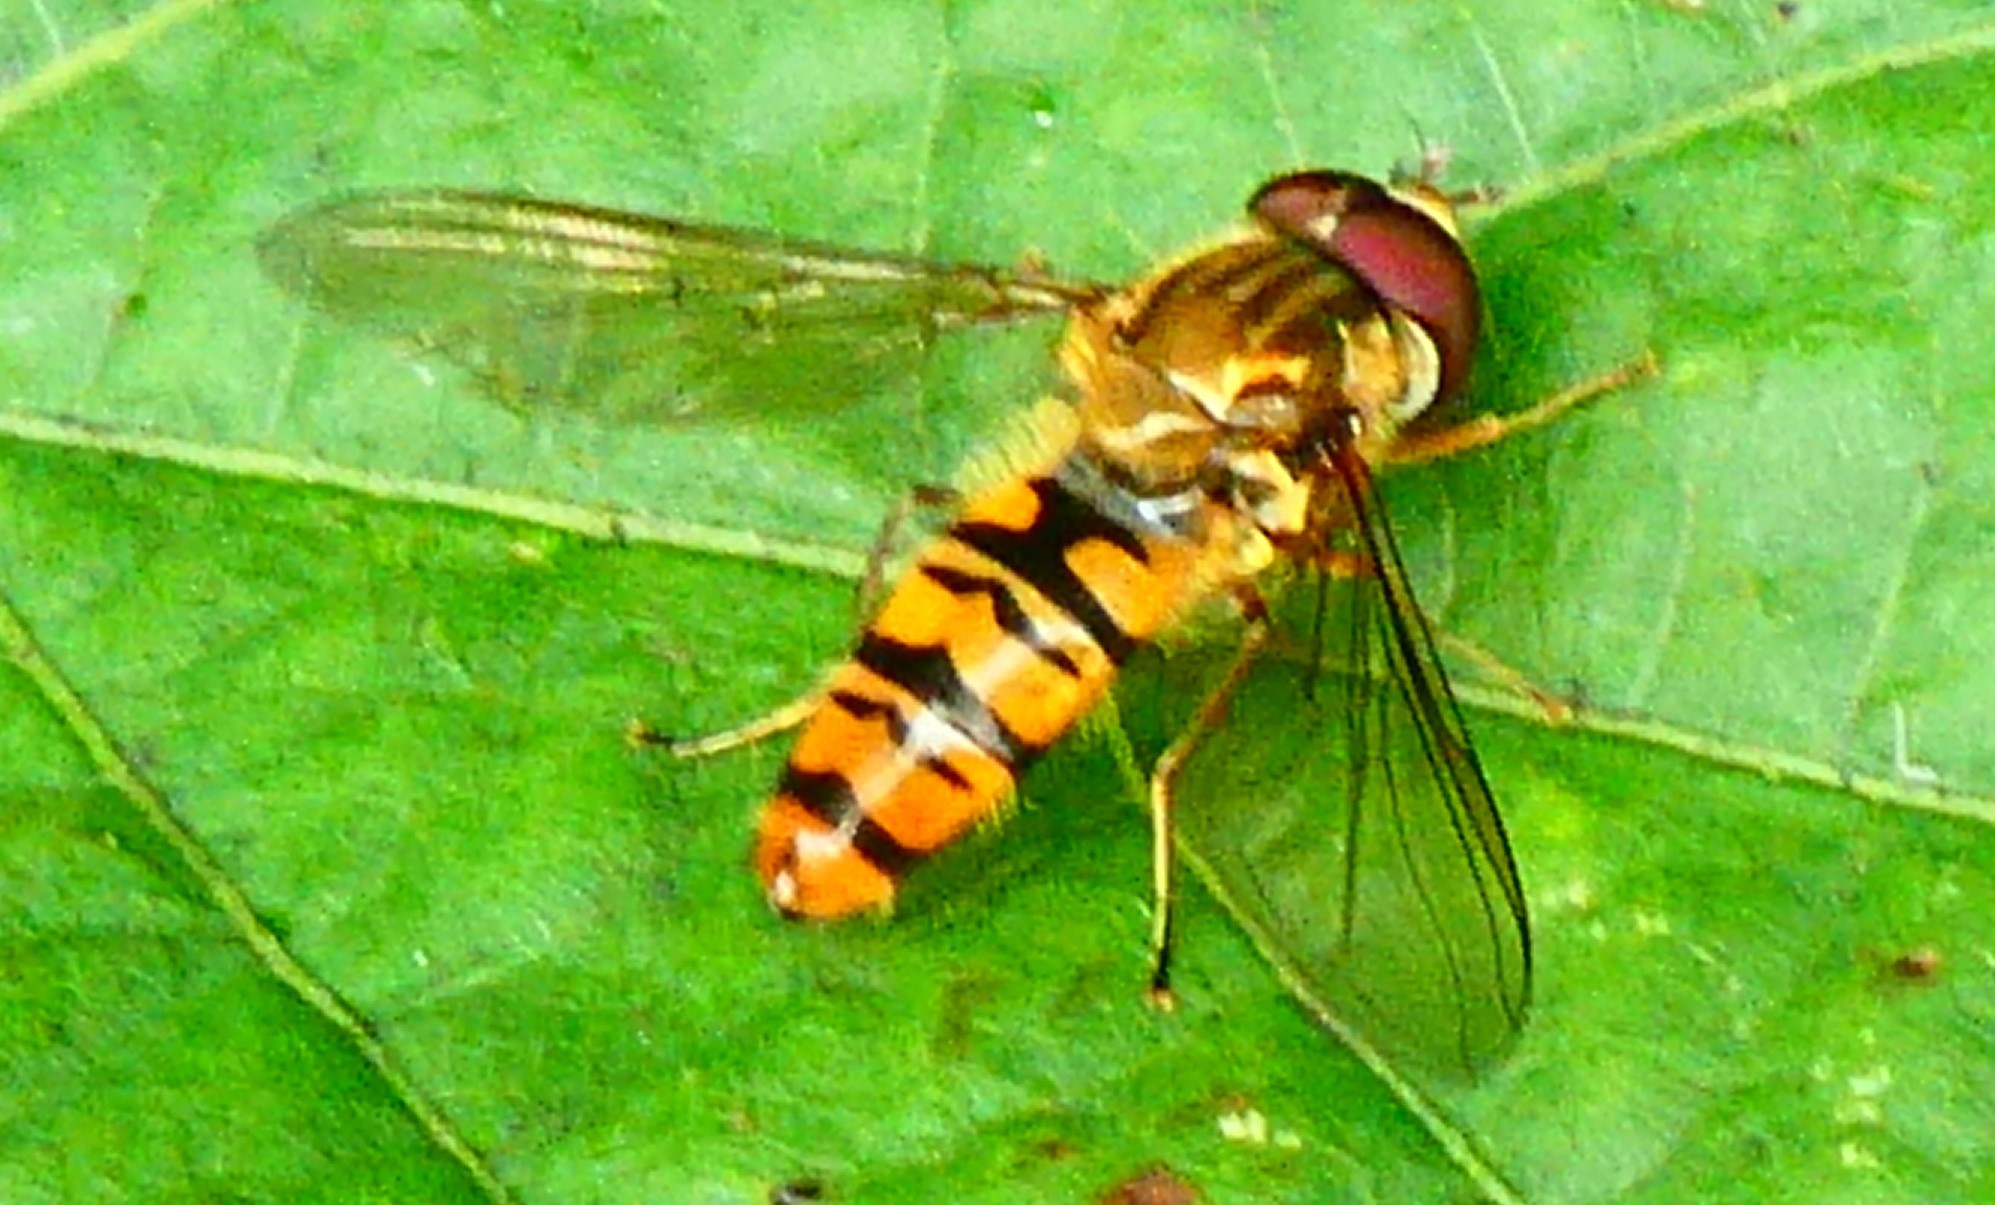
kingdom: Animalia
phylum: Arthropoda
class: Insecta
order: Diptera
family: Syrphidae
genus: Episyrphus
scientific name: Episyrphus balteatus
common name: Marmalade hoverfly
